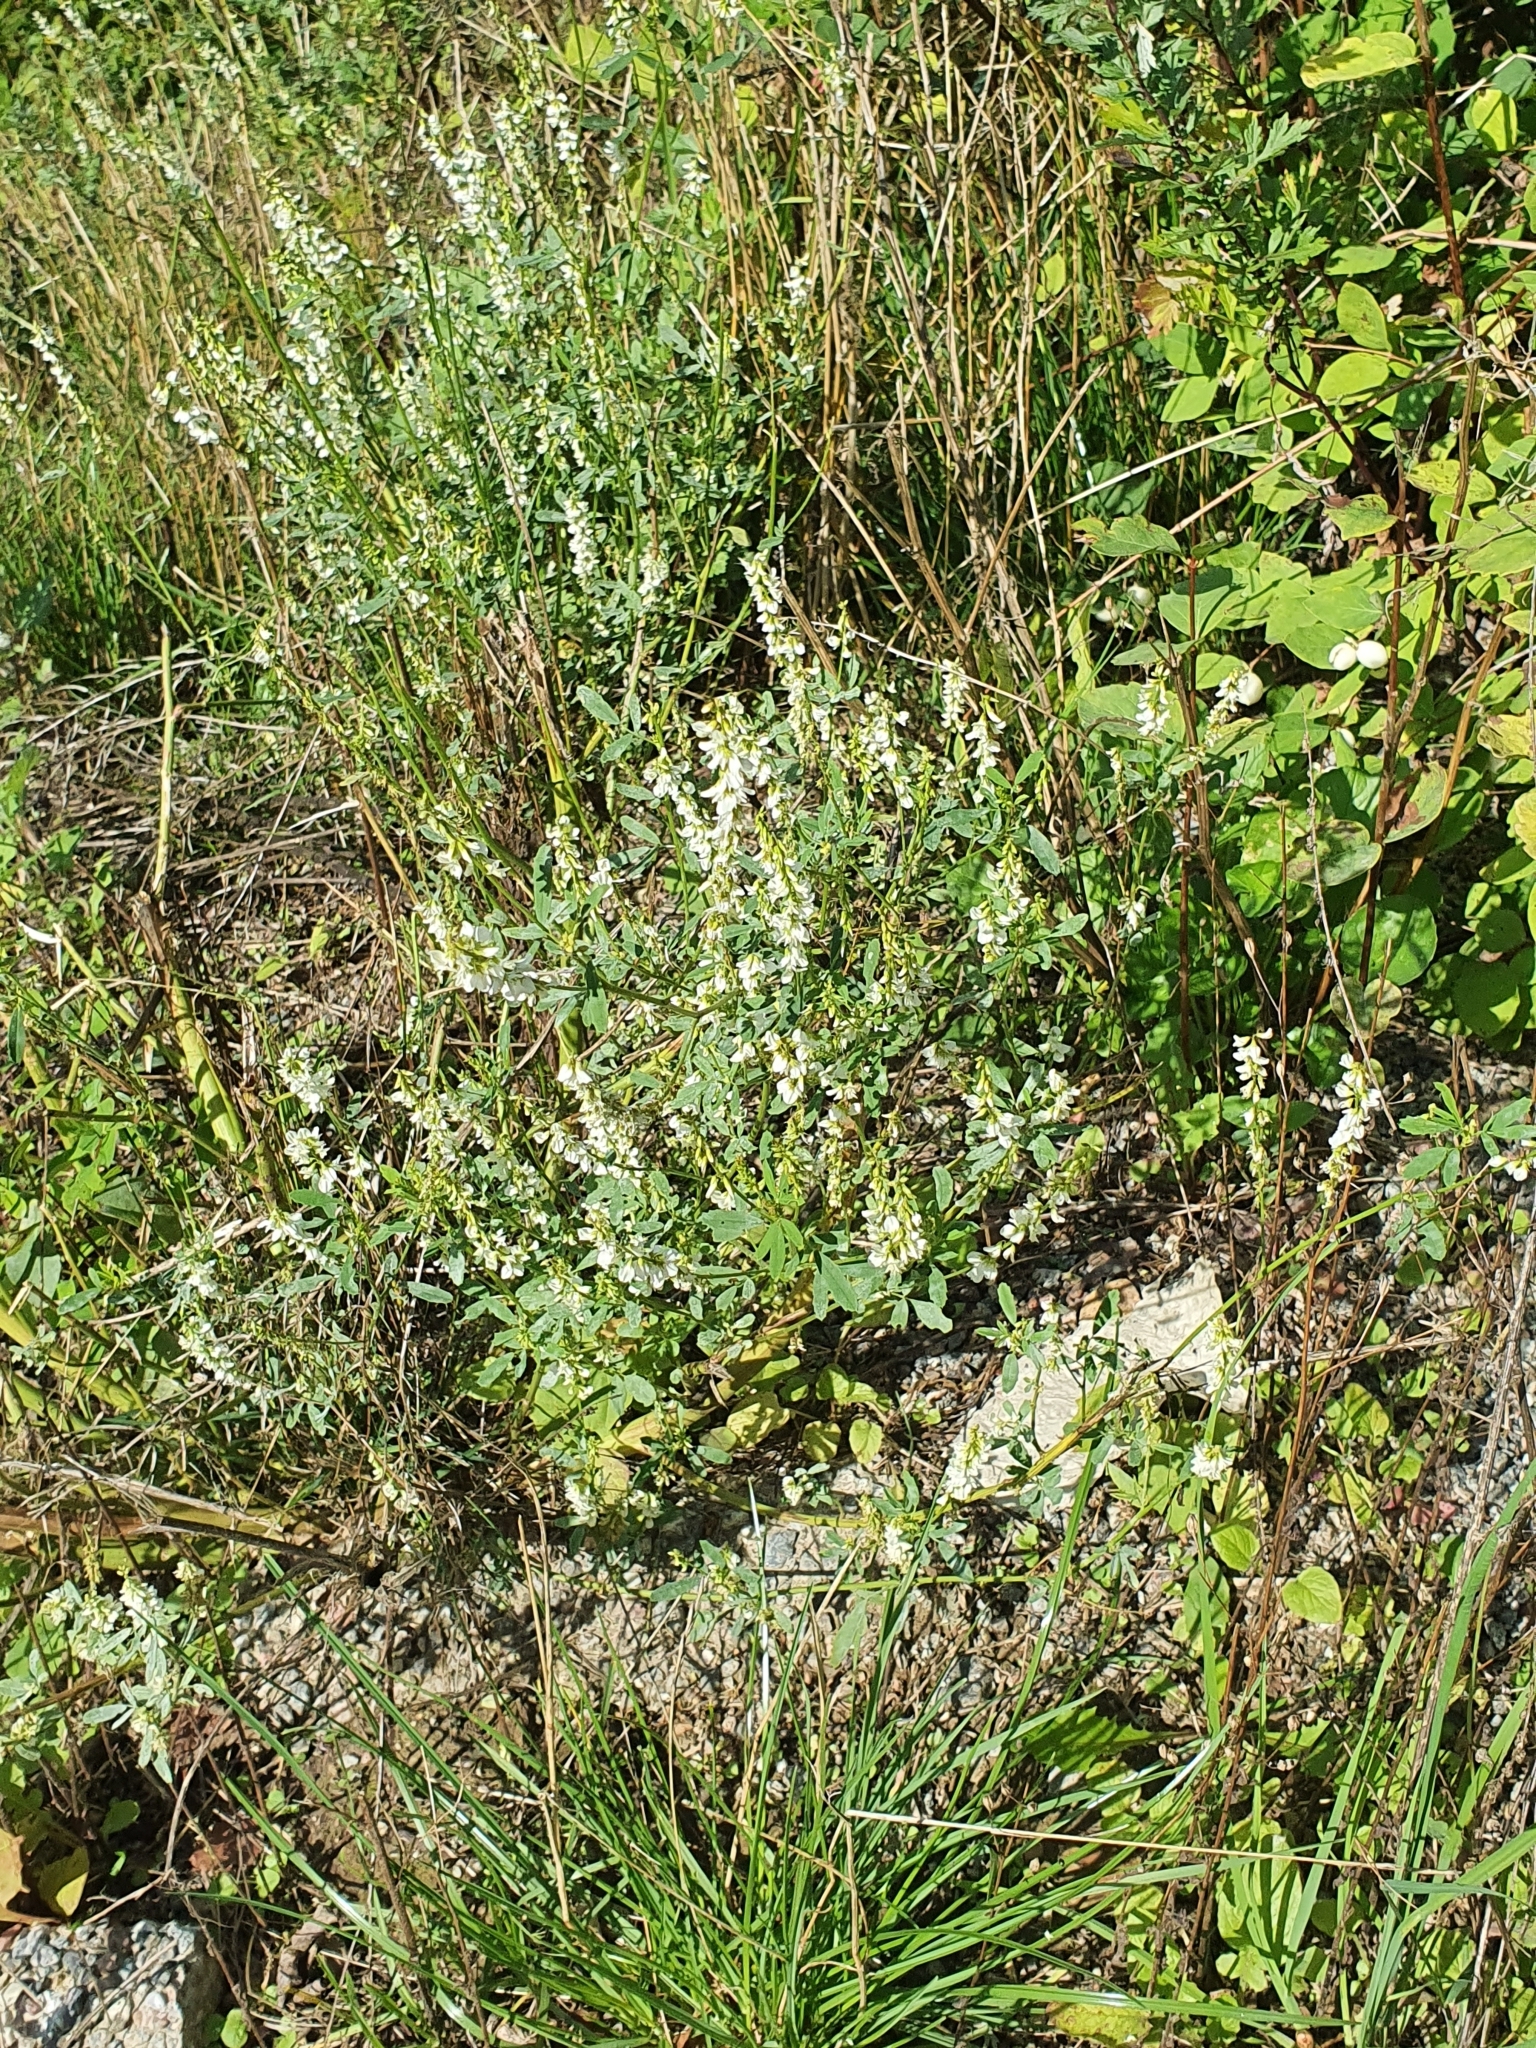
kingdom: Plantae
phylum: Tracheophyta
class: Magnoliopsida
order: Fabales
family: Fabaceae
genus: Melilotus
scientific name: Melilotus albus
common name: White melilot
